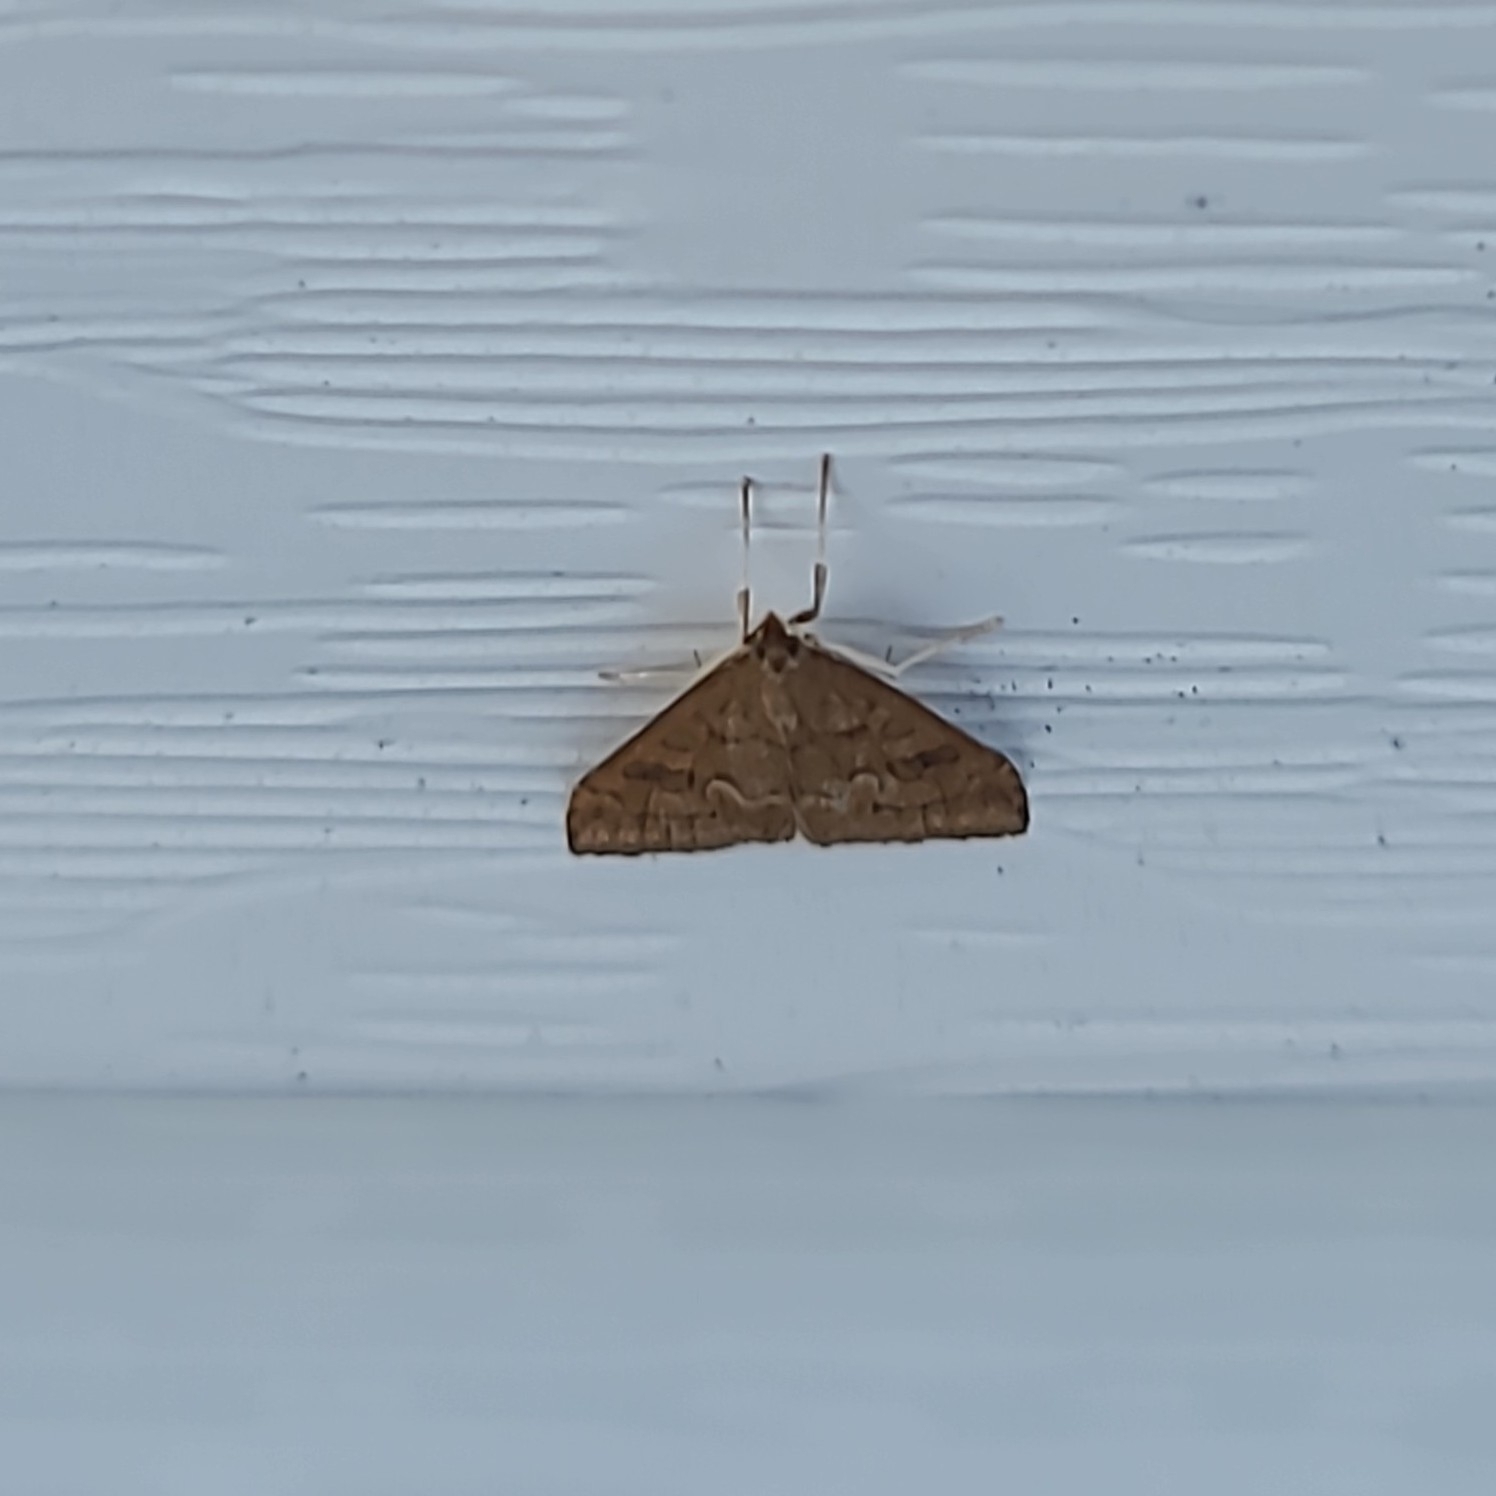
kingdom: Animalia
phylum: Arthropoda
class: Insecta
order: Lepidoptera
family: Crambidae
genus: Udea
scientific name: Udea profundalis
